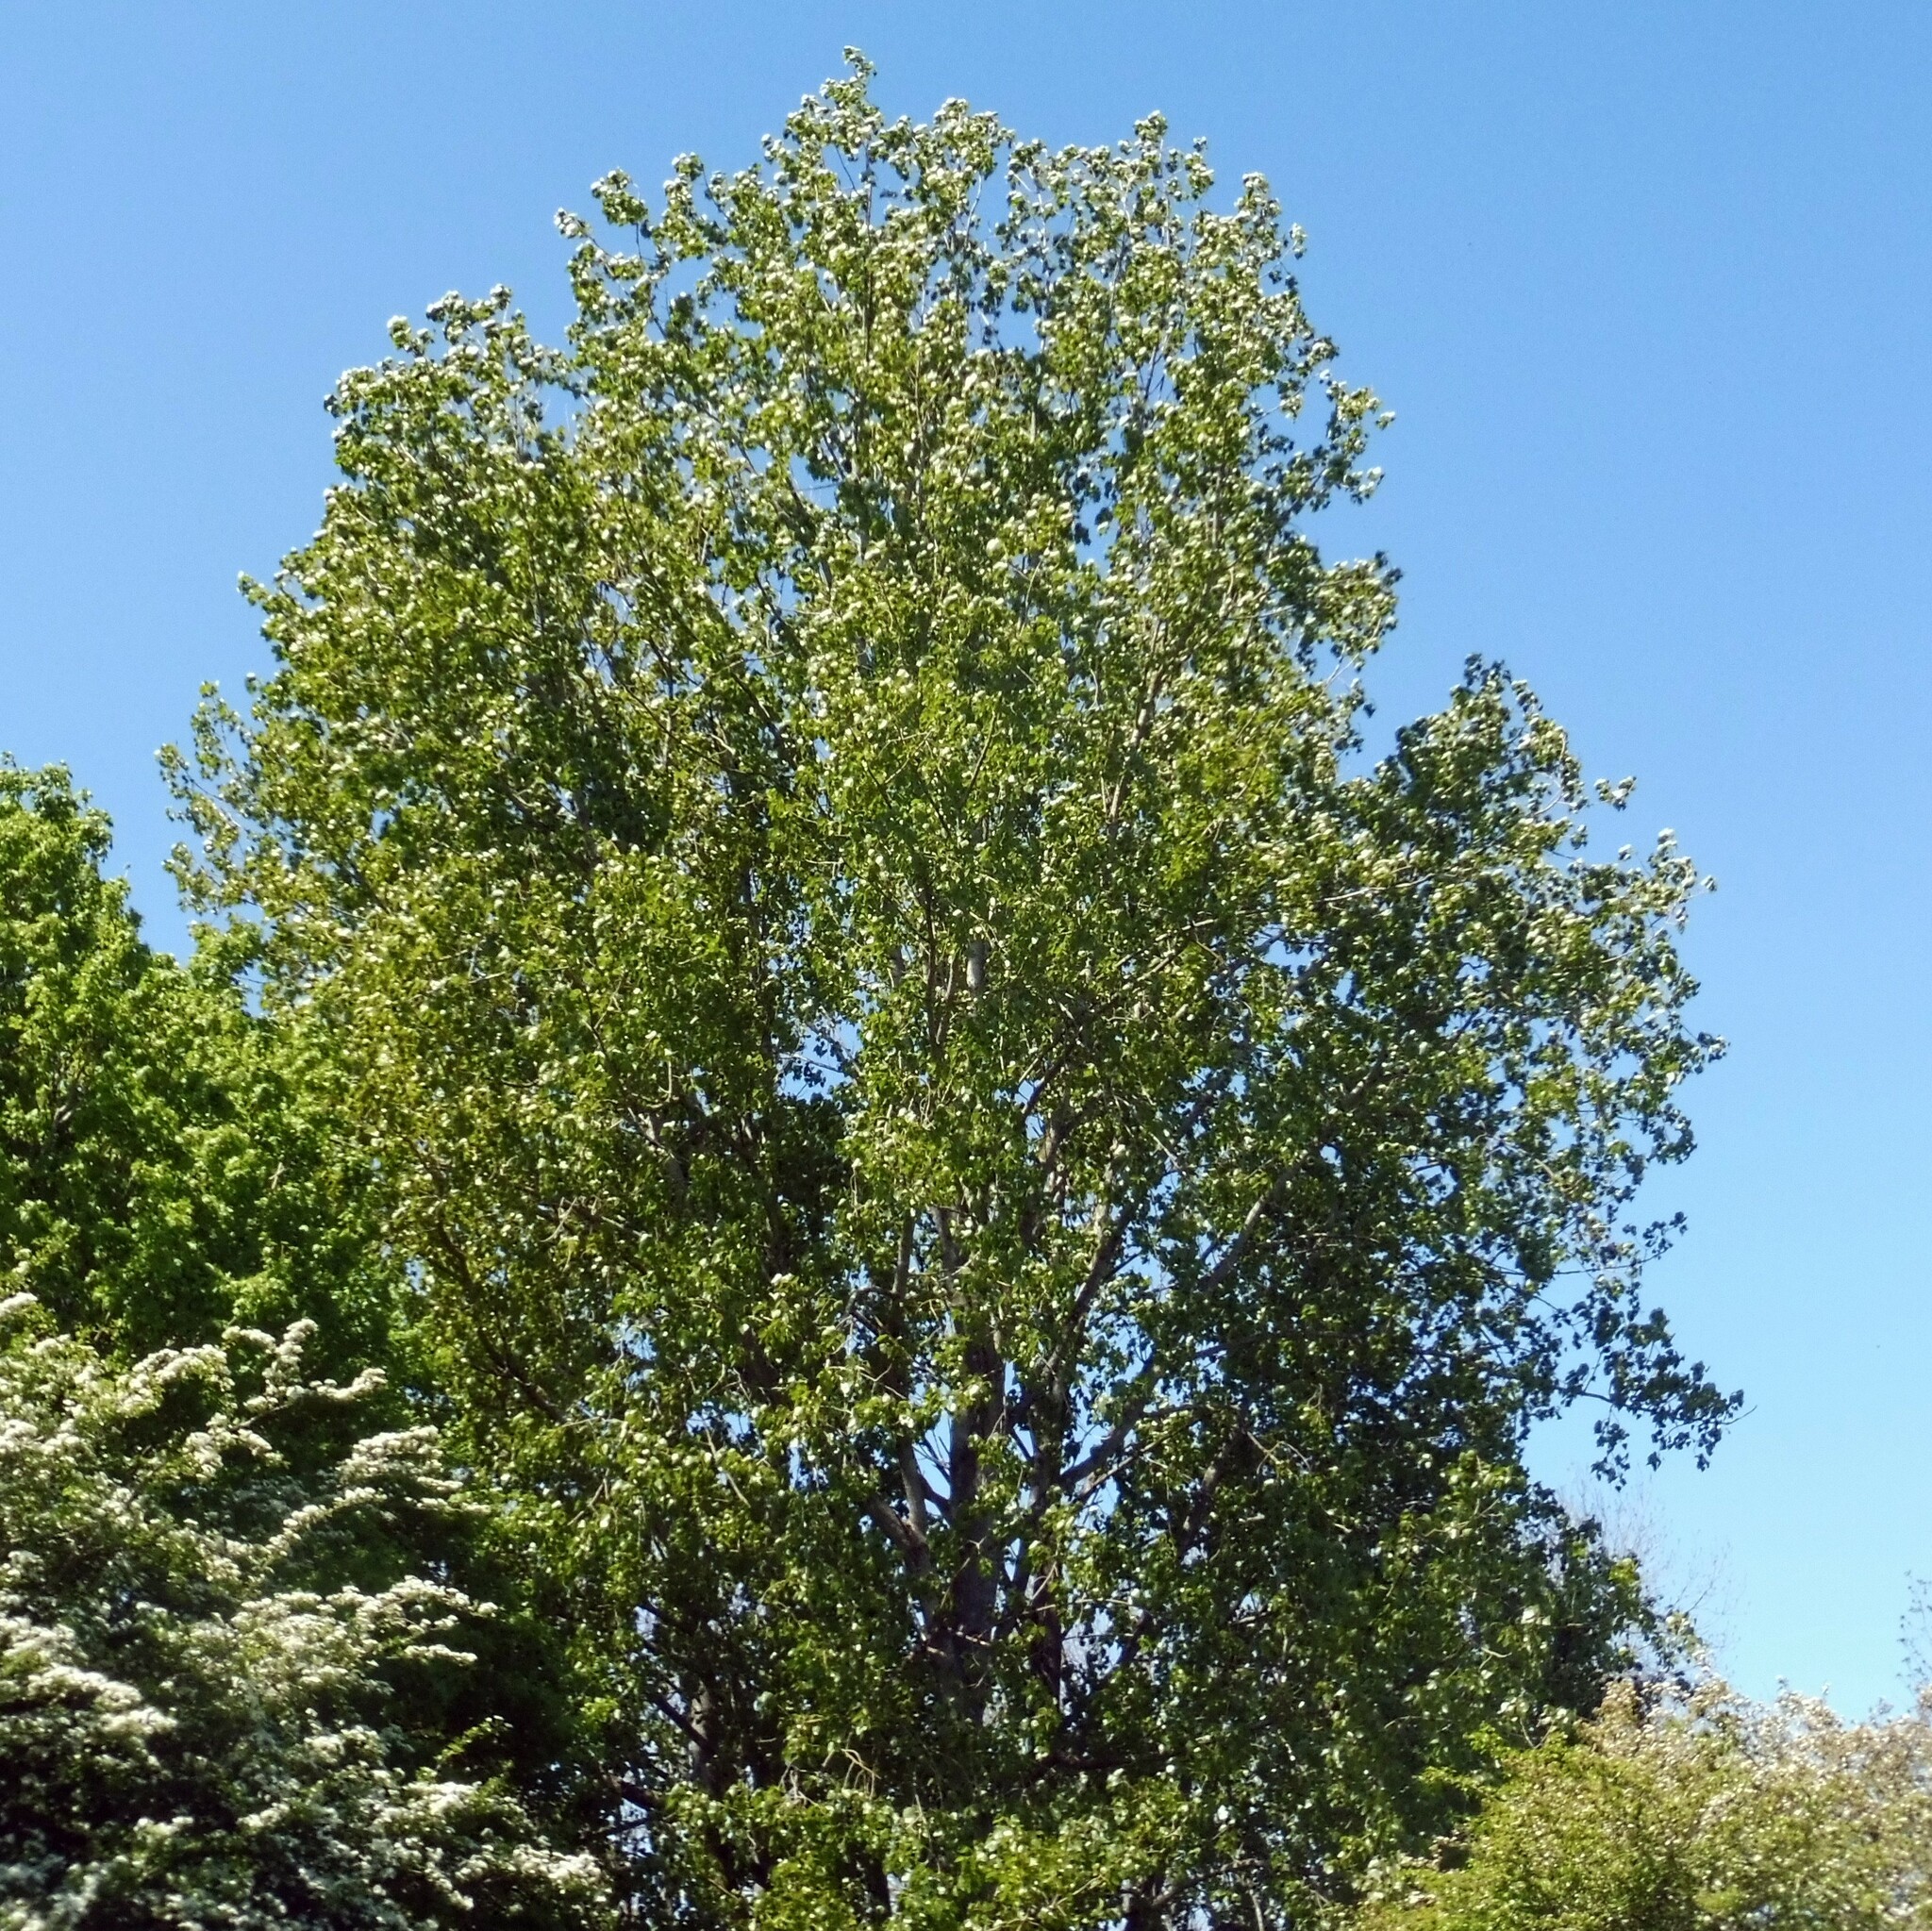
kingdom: Plantae
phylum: Tracheophyta
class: Magnoliopsida
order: Malpighiales
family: Salicaceae
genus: Populus
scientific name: Populus canadensis
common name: Carolina poplar
